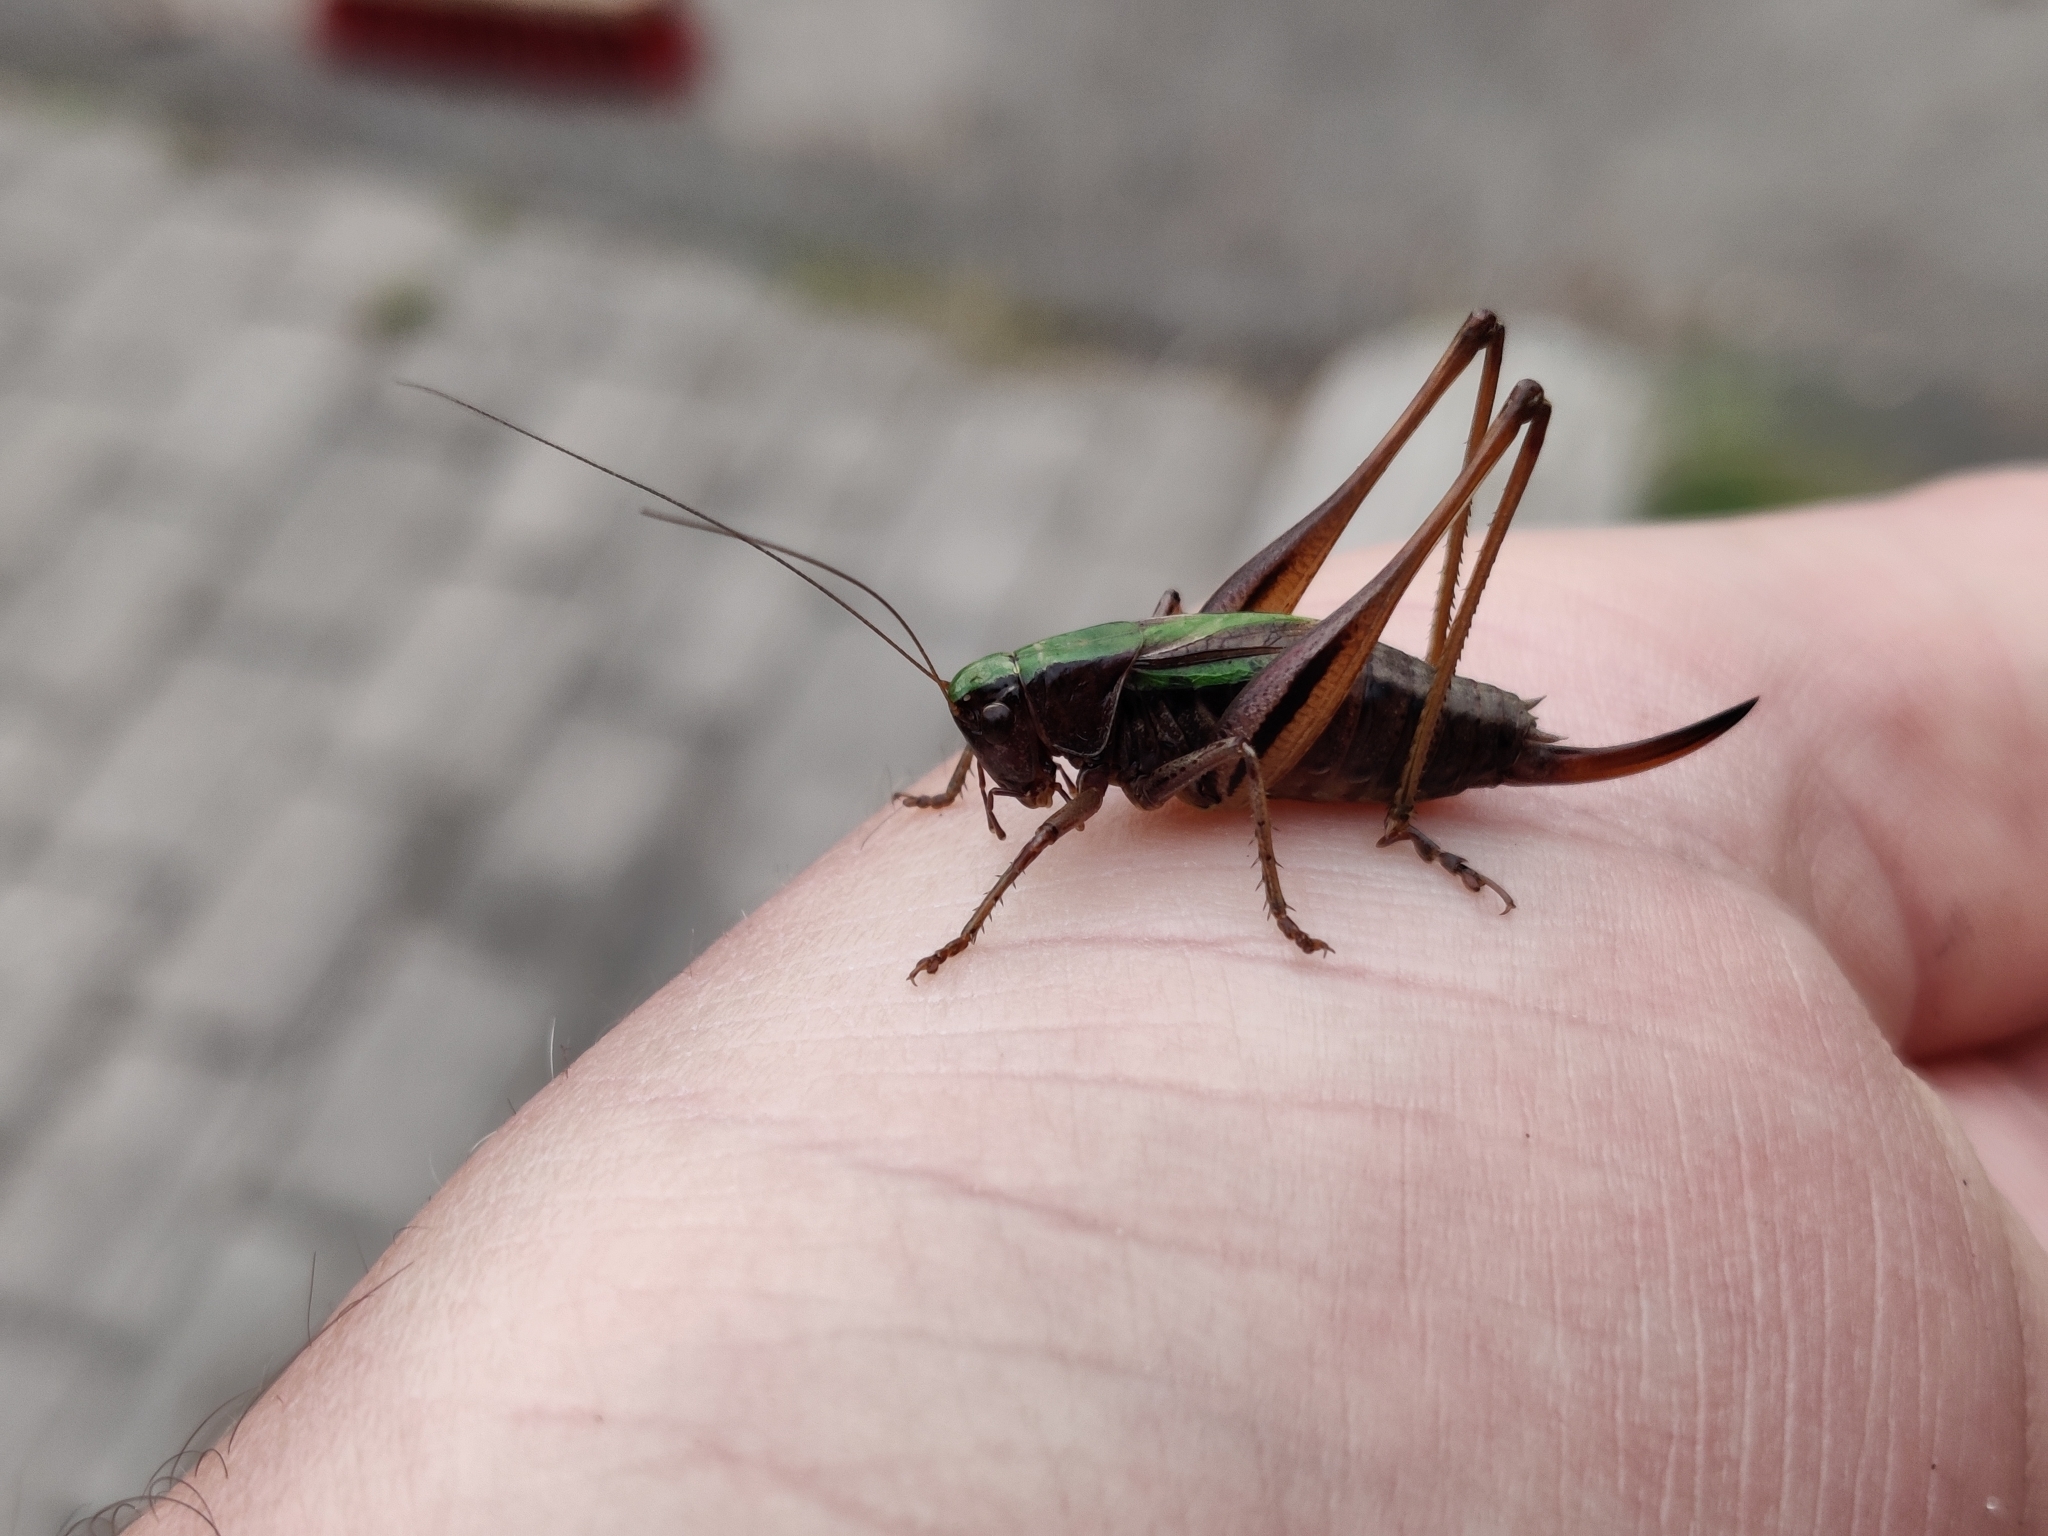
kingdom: Animalia
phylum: Arthropoda
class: Insecta
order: Orthoptera
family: Tettigoniidae
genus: Metrioptera
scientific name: Metrioptera brachyptera
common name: Bog bush-cricket
